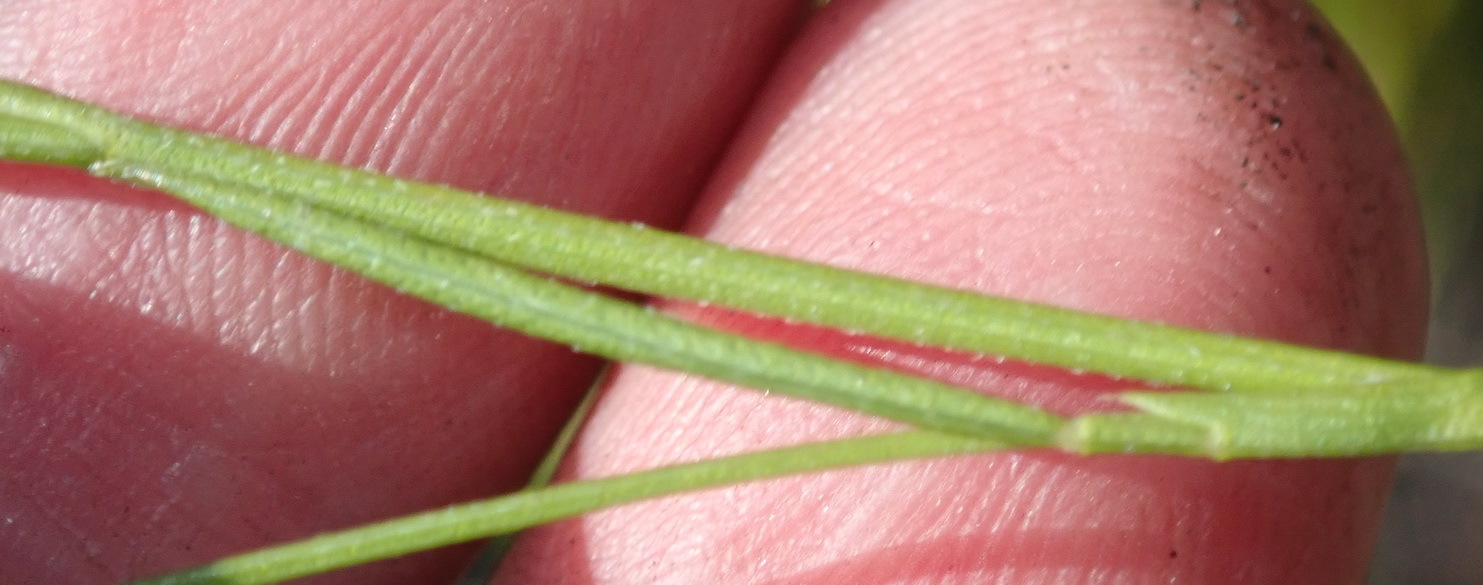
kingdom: Plantae
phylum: Tracheophyta
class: Magnoliopsida
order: Fabales
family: Fabaceae
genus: Psoralea
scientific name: Psoralea trullata
